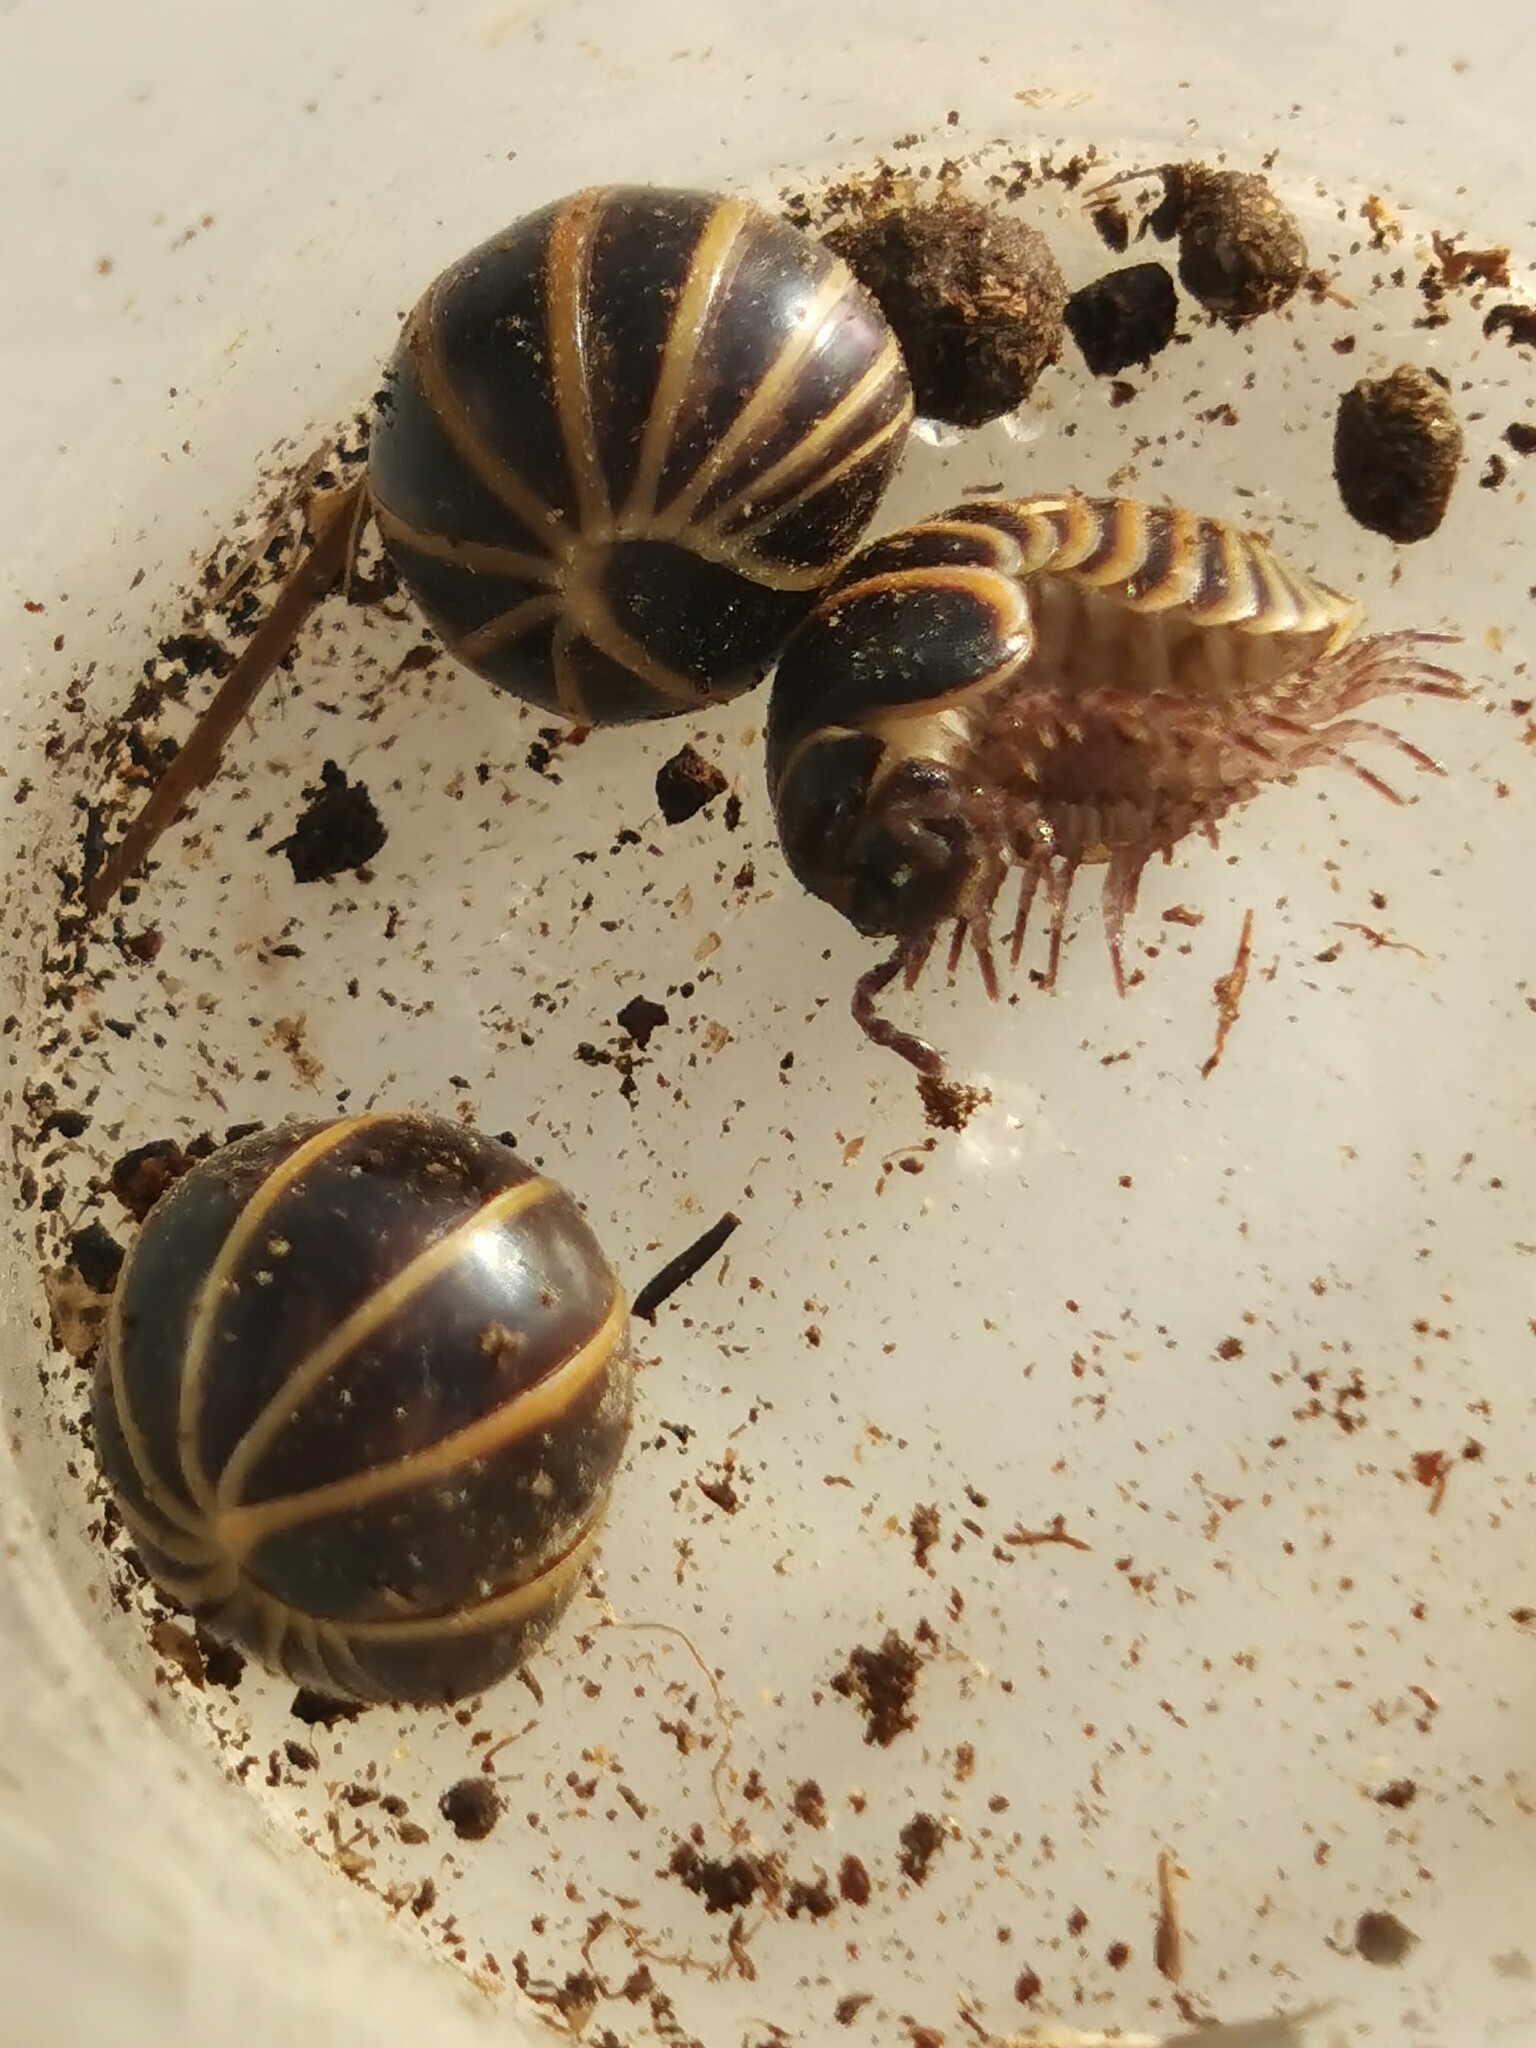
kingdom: Animalia
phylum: Arthropoda
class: Diplopoda
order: Glomerida
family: Glomeridae
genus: Glomeris
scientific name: Glomeris marginata
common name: Bordered pill millipede
